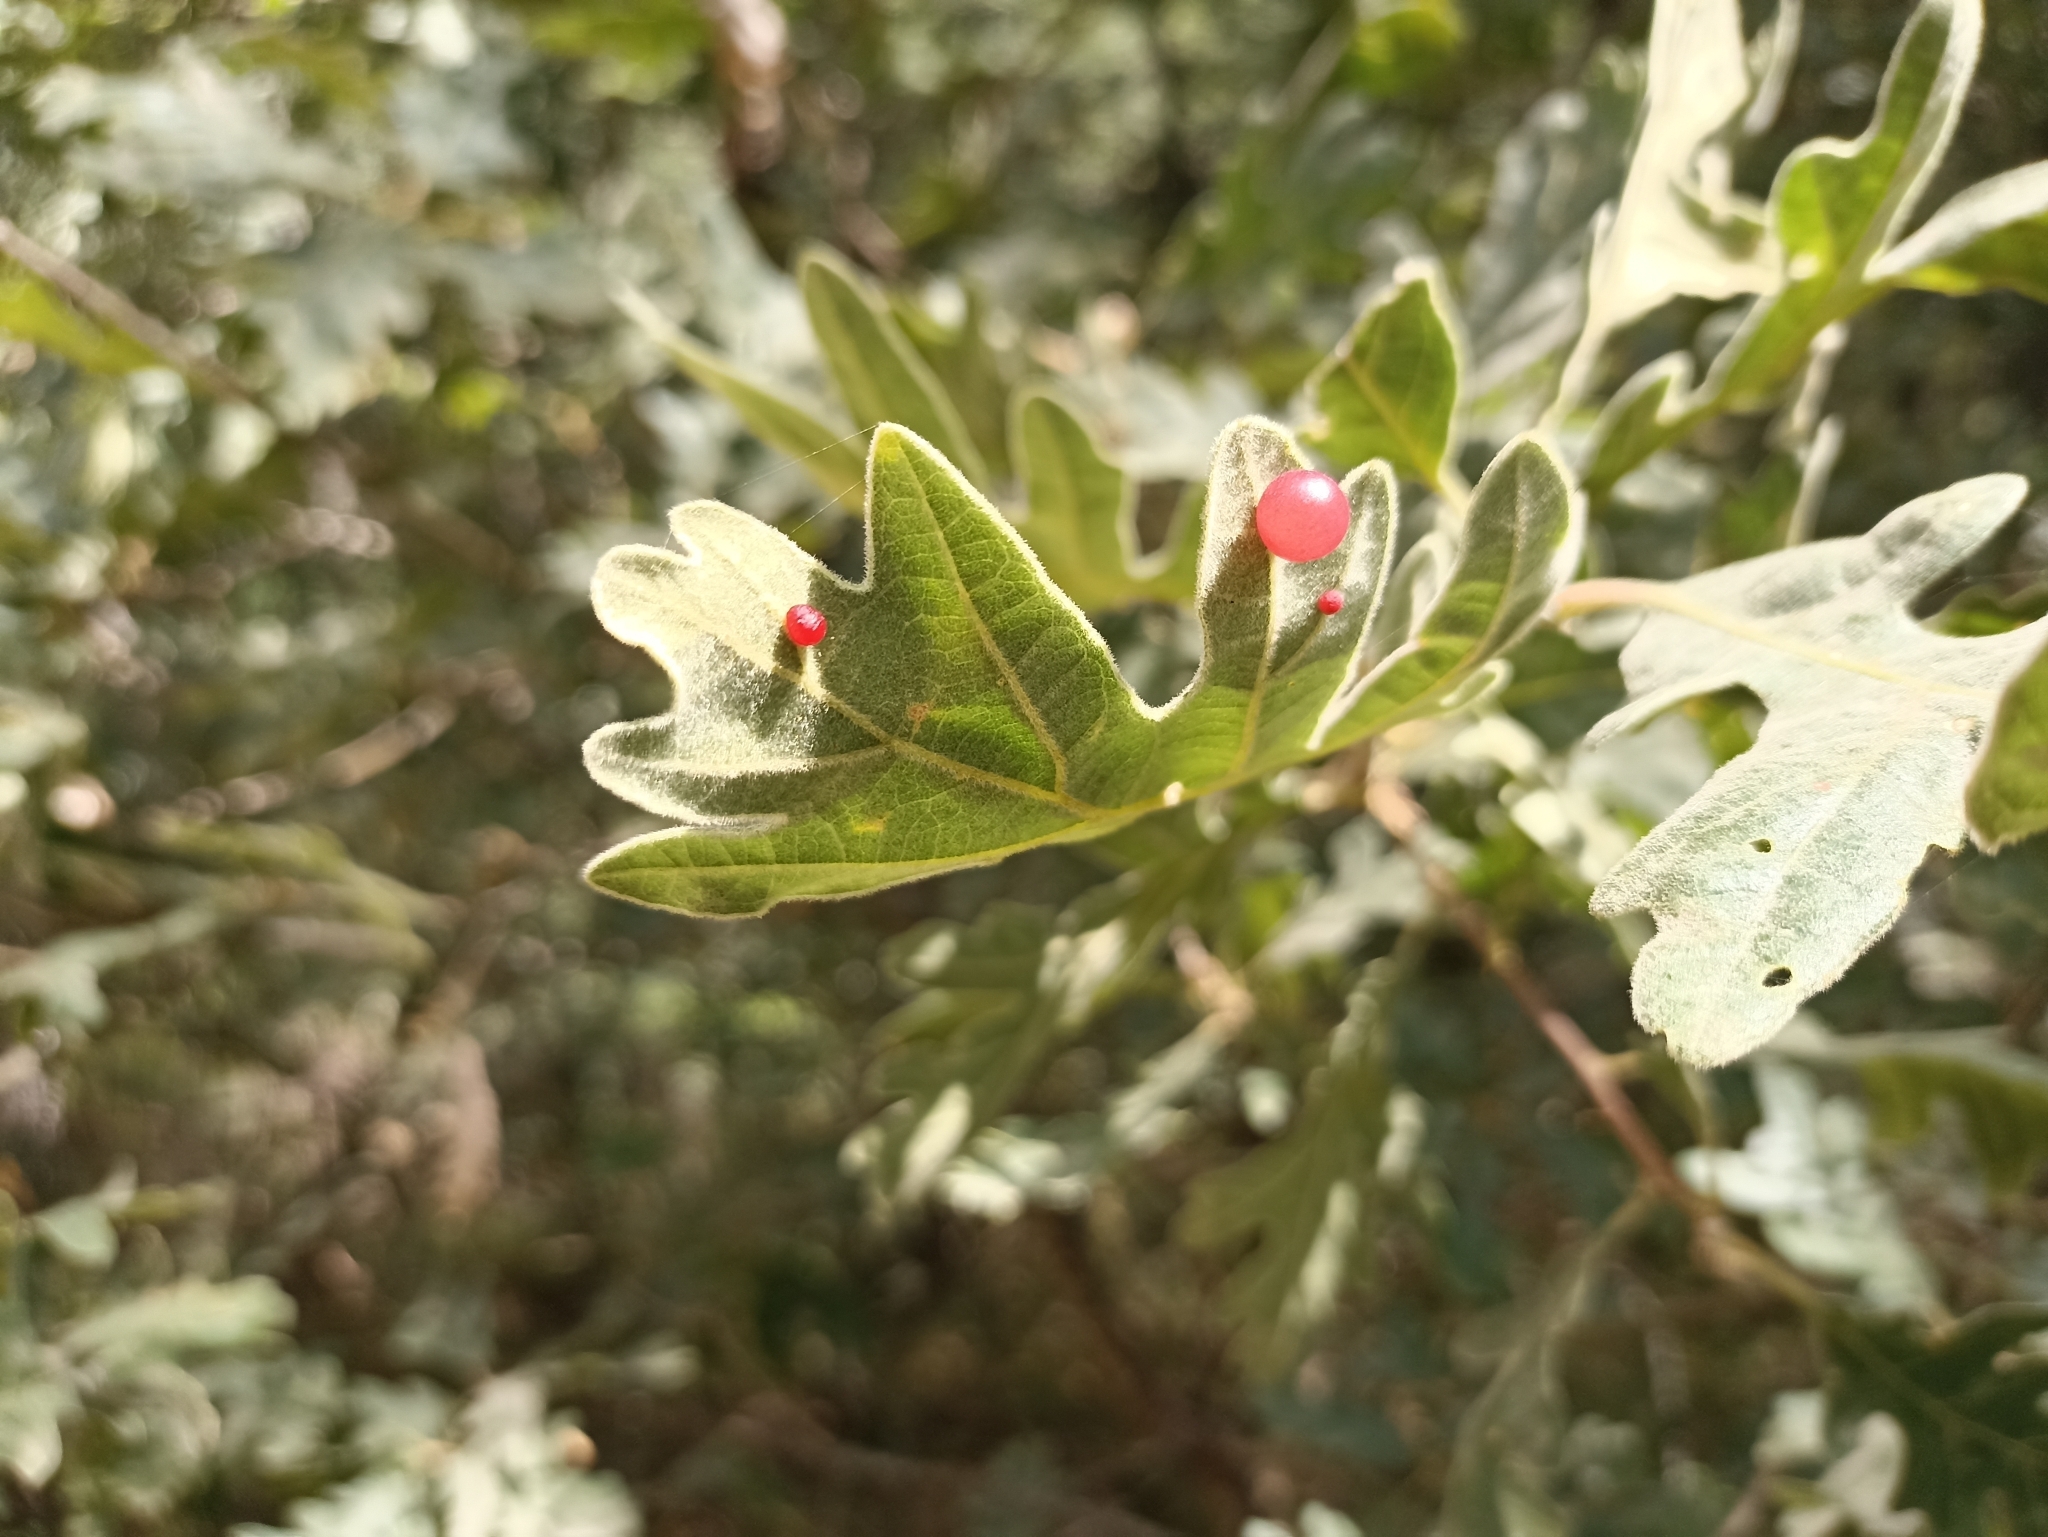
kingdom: Animalia
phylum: Arthropoda
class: Insecta
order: Hymenoptera
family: Cynipidae
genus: Cynips
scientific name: Cynips divisa
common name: Red currant gall
